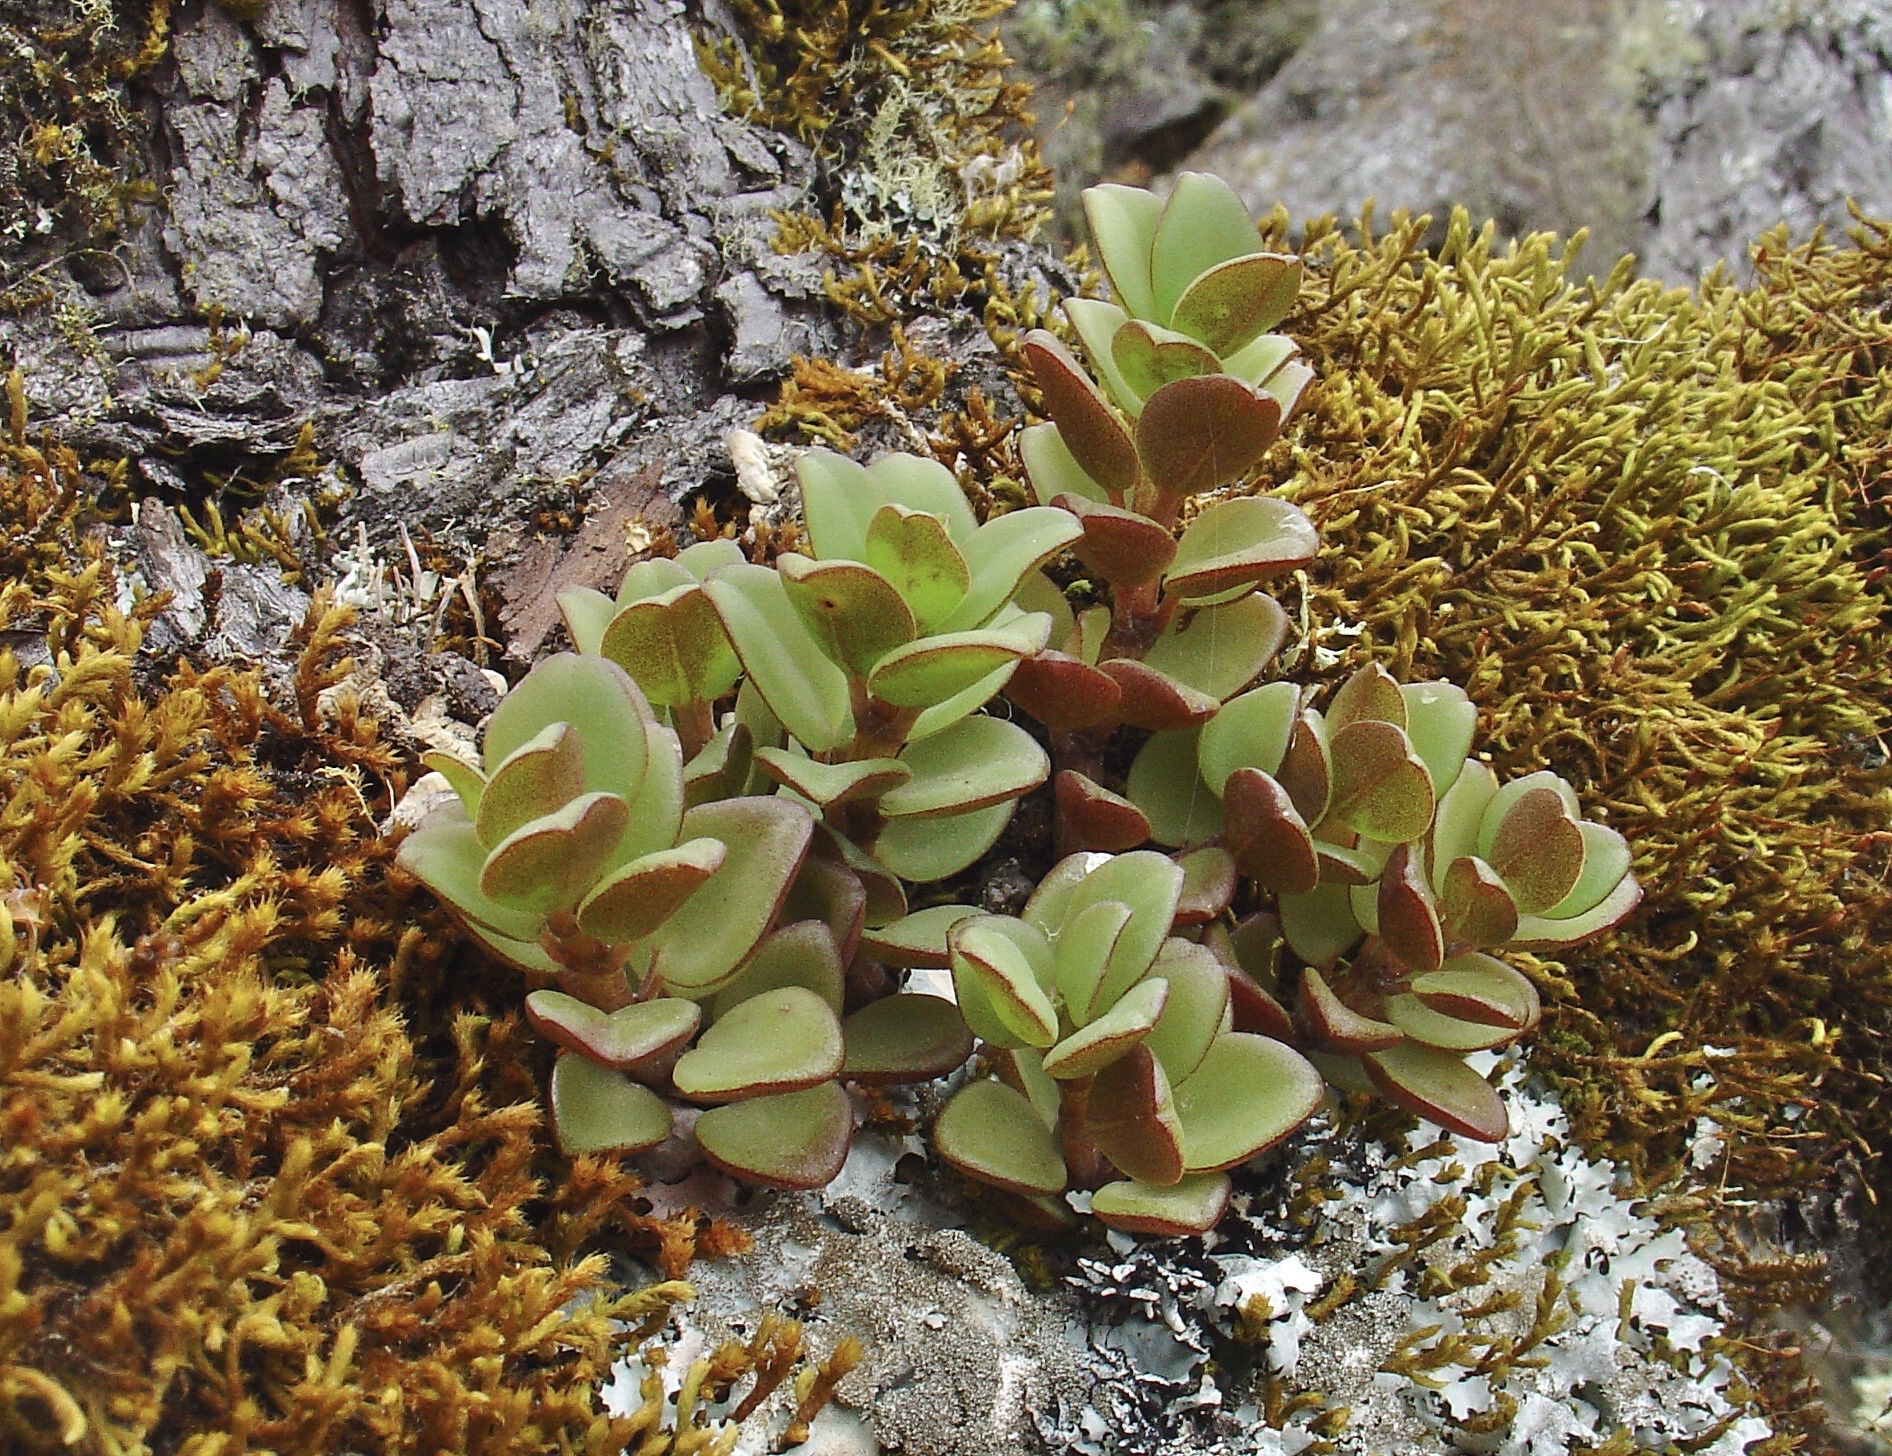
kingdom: Plantae
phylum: Tracheophyta
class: Magnoliopsida
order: Piperales
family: Piperaceae
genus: Peperomia
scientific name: Peperomia hartwegiana
